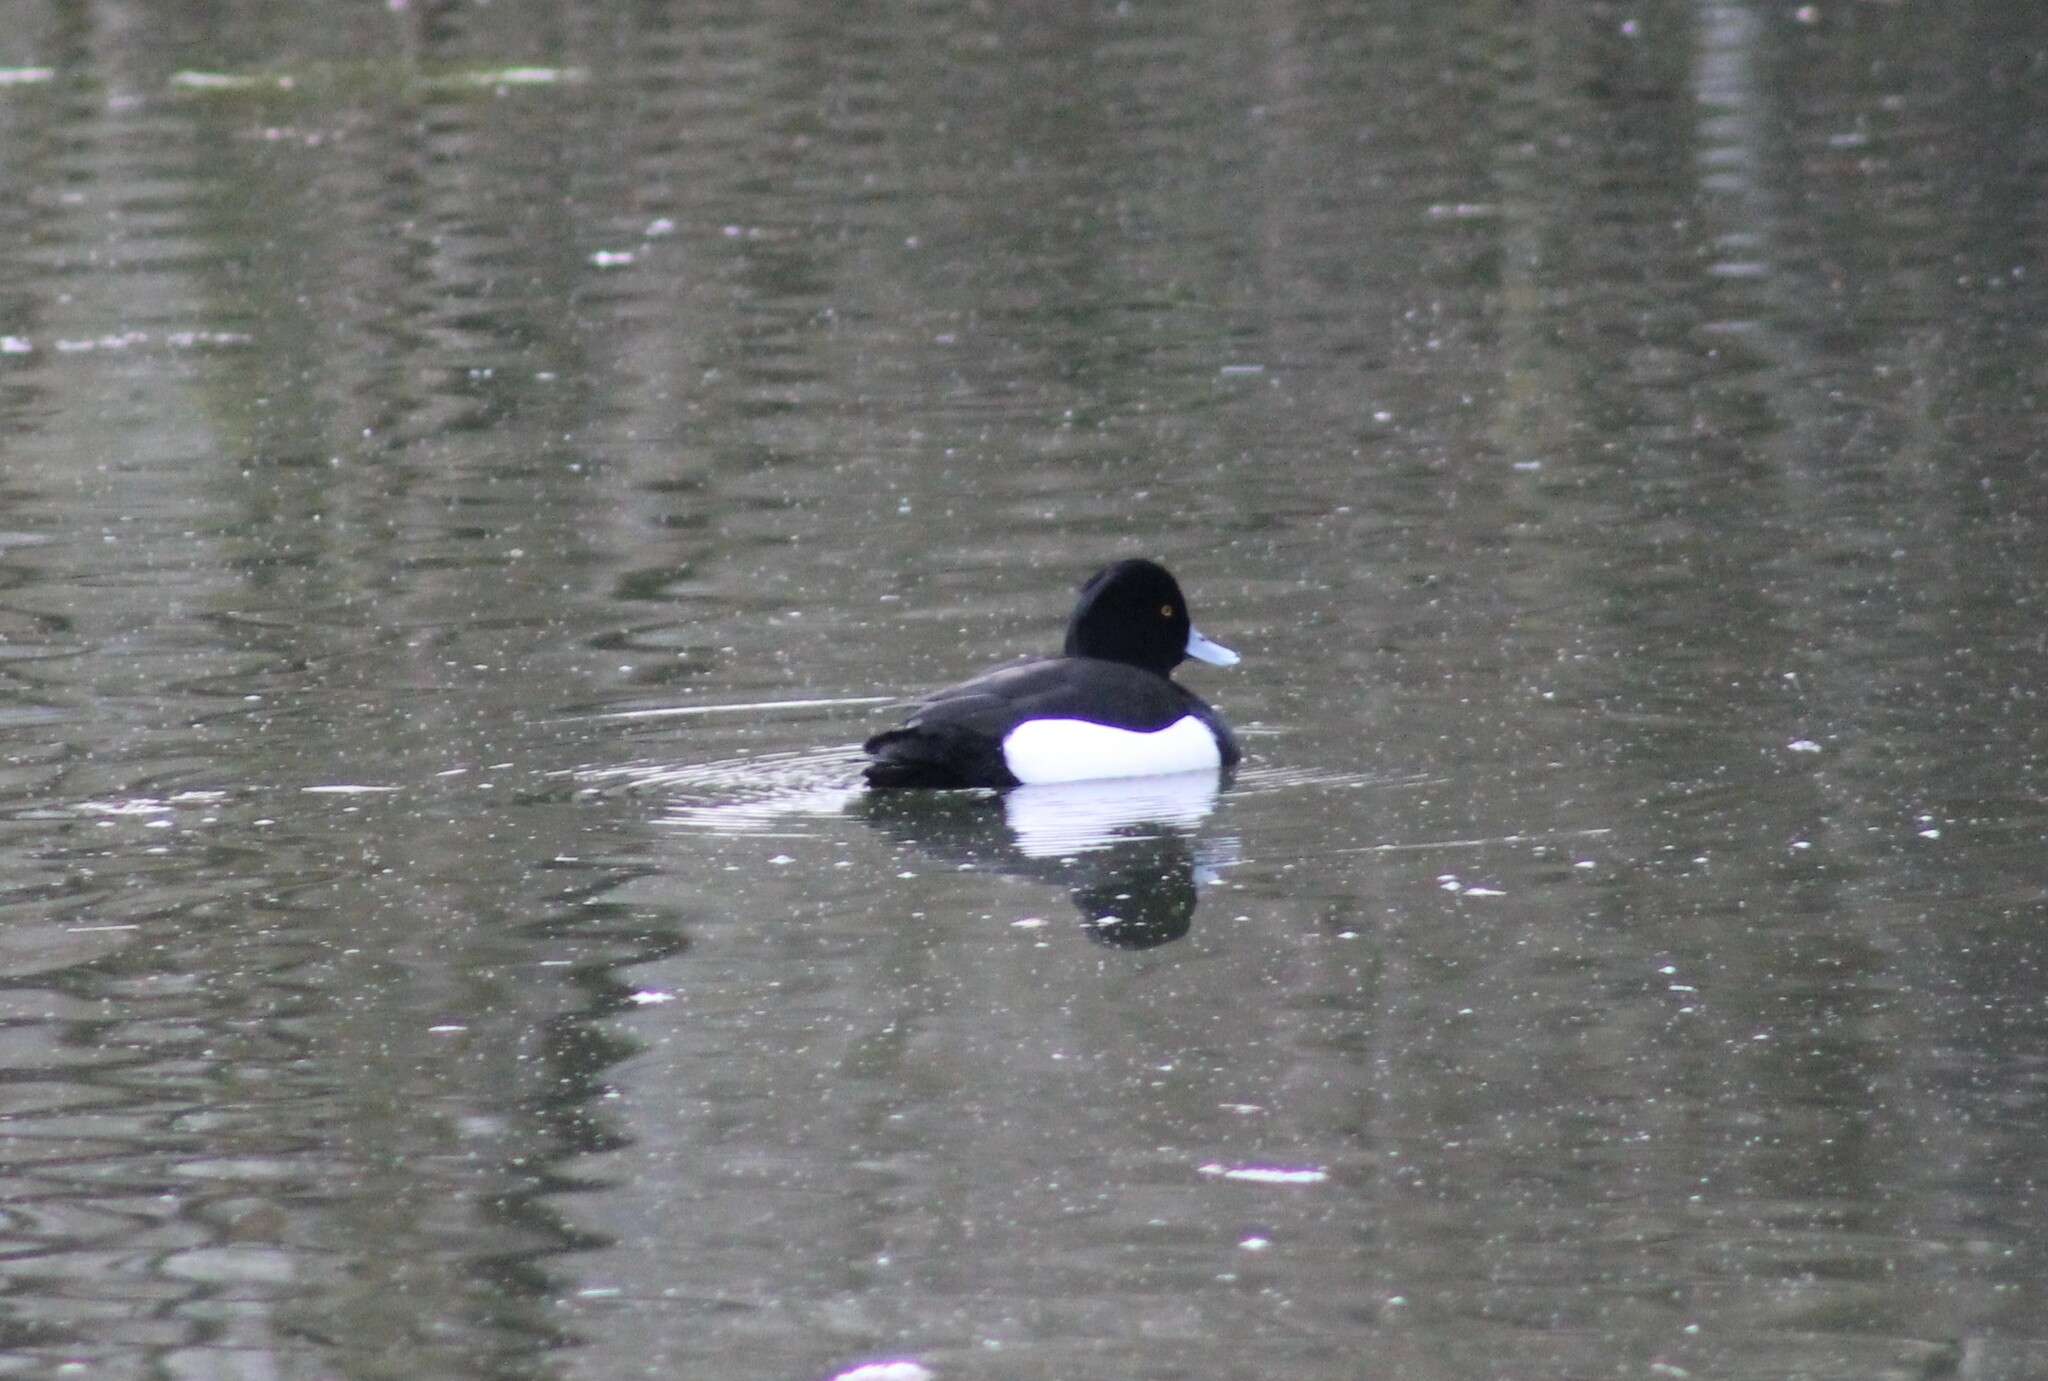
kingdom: Animalia
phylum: Chordata
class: Aves
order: Anseriformes
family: Anatidae
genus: Aythya
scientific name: Aythya fuligula
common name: Tufted duck
